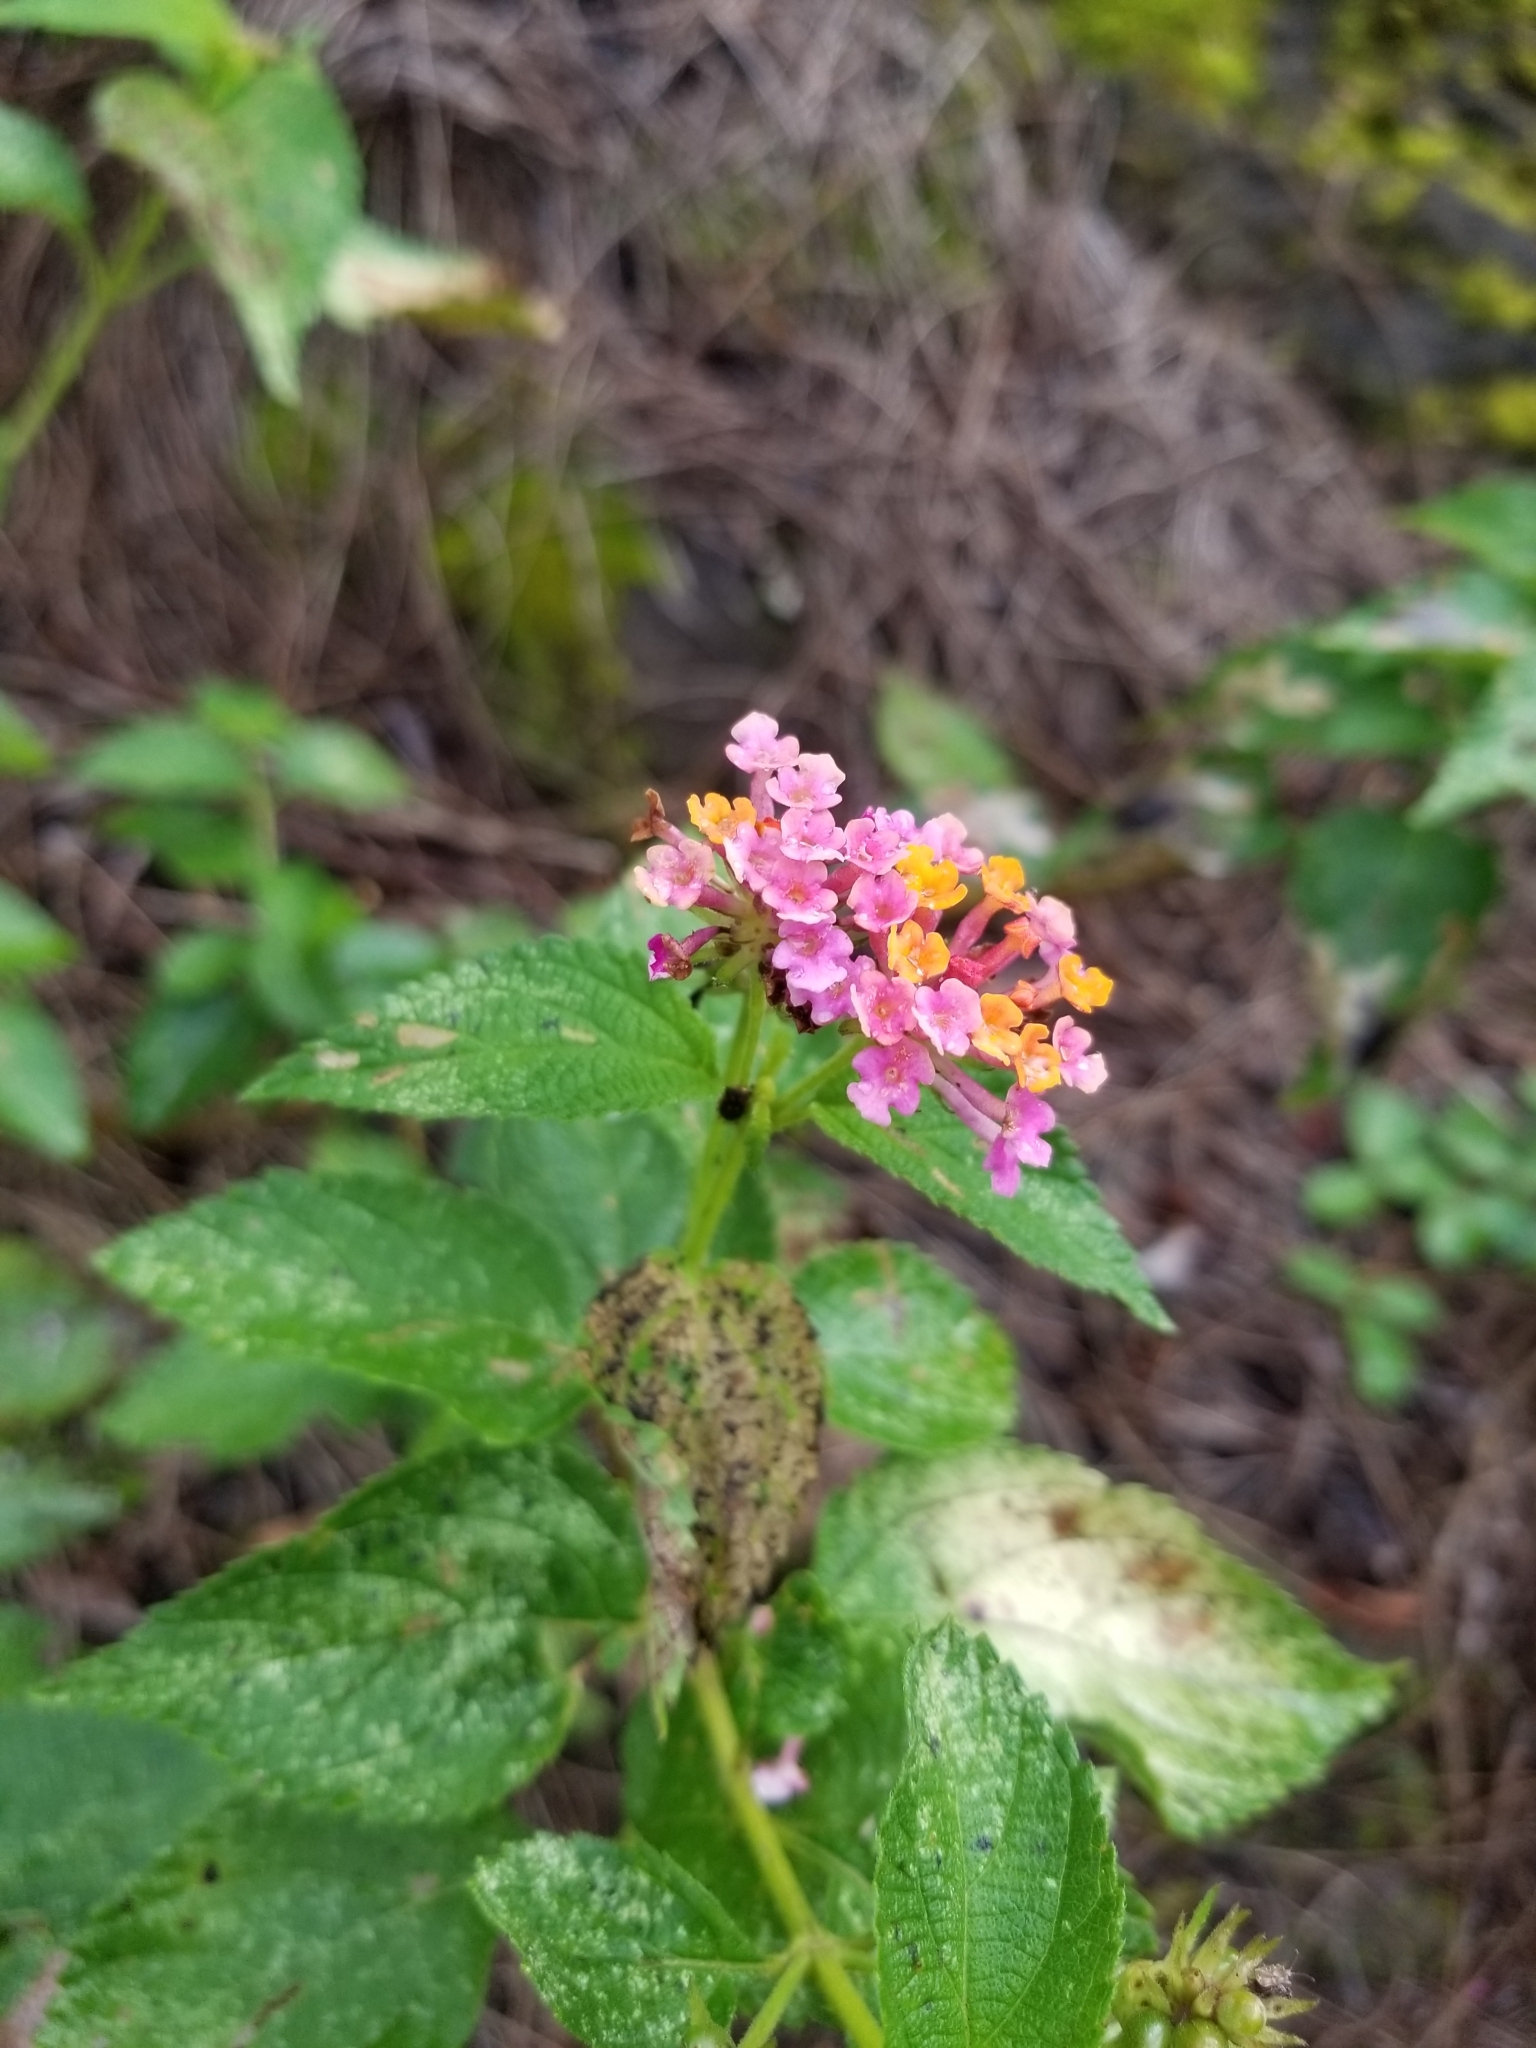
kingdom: Plantae
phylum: Tracheophyta
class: Magnoliopsida
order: Lamiales
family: Verbenaceae
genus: Lantana
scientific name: Lantana camara
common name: Lantana
